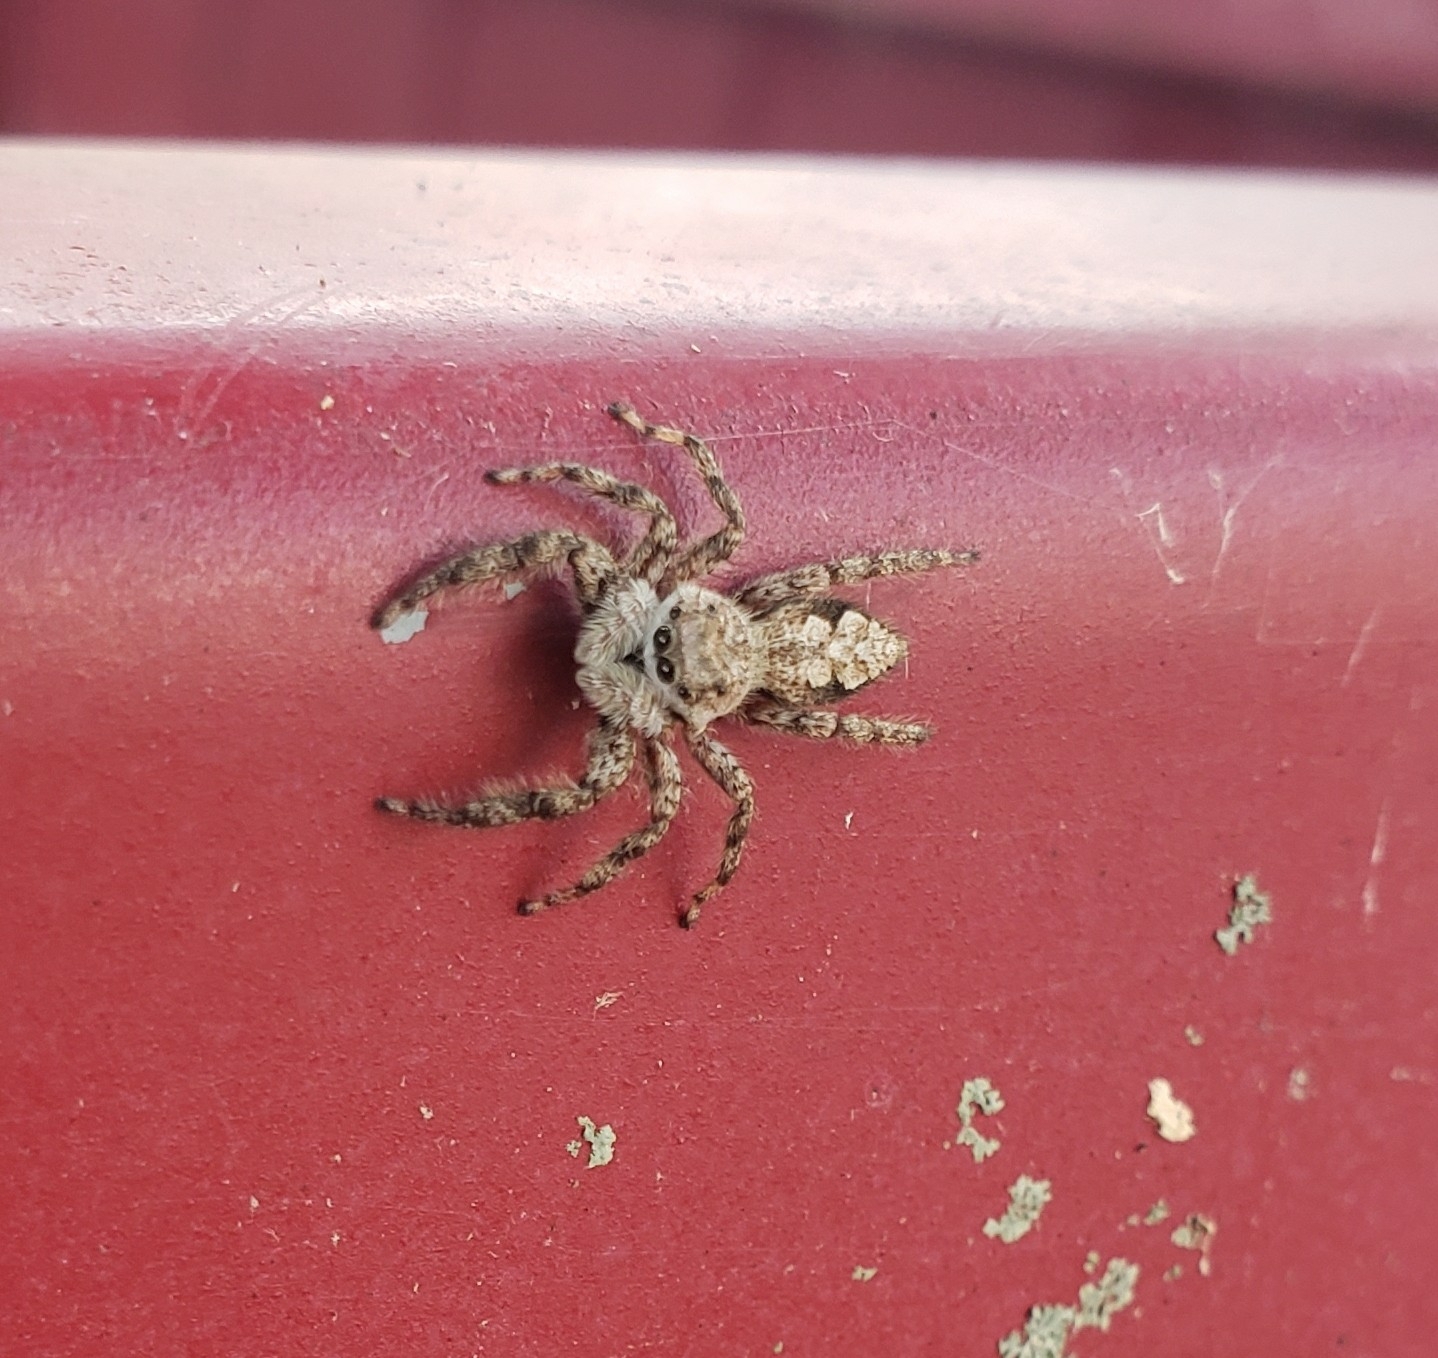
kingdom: Animalia
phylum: Arthropoda
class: Arachnida
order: Araneae
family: Salticidae
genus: Platycryptus
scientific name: Platycryptus undatus
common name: Tan jumping spider
